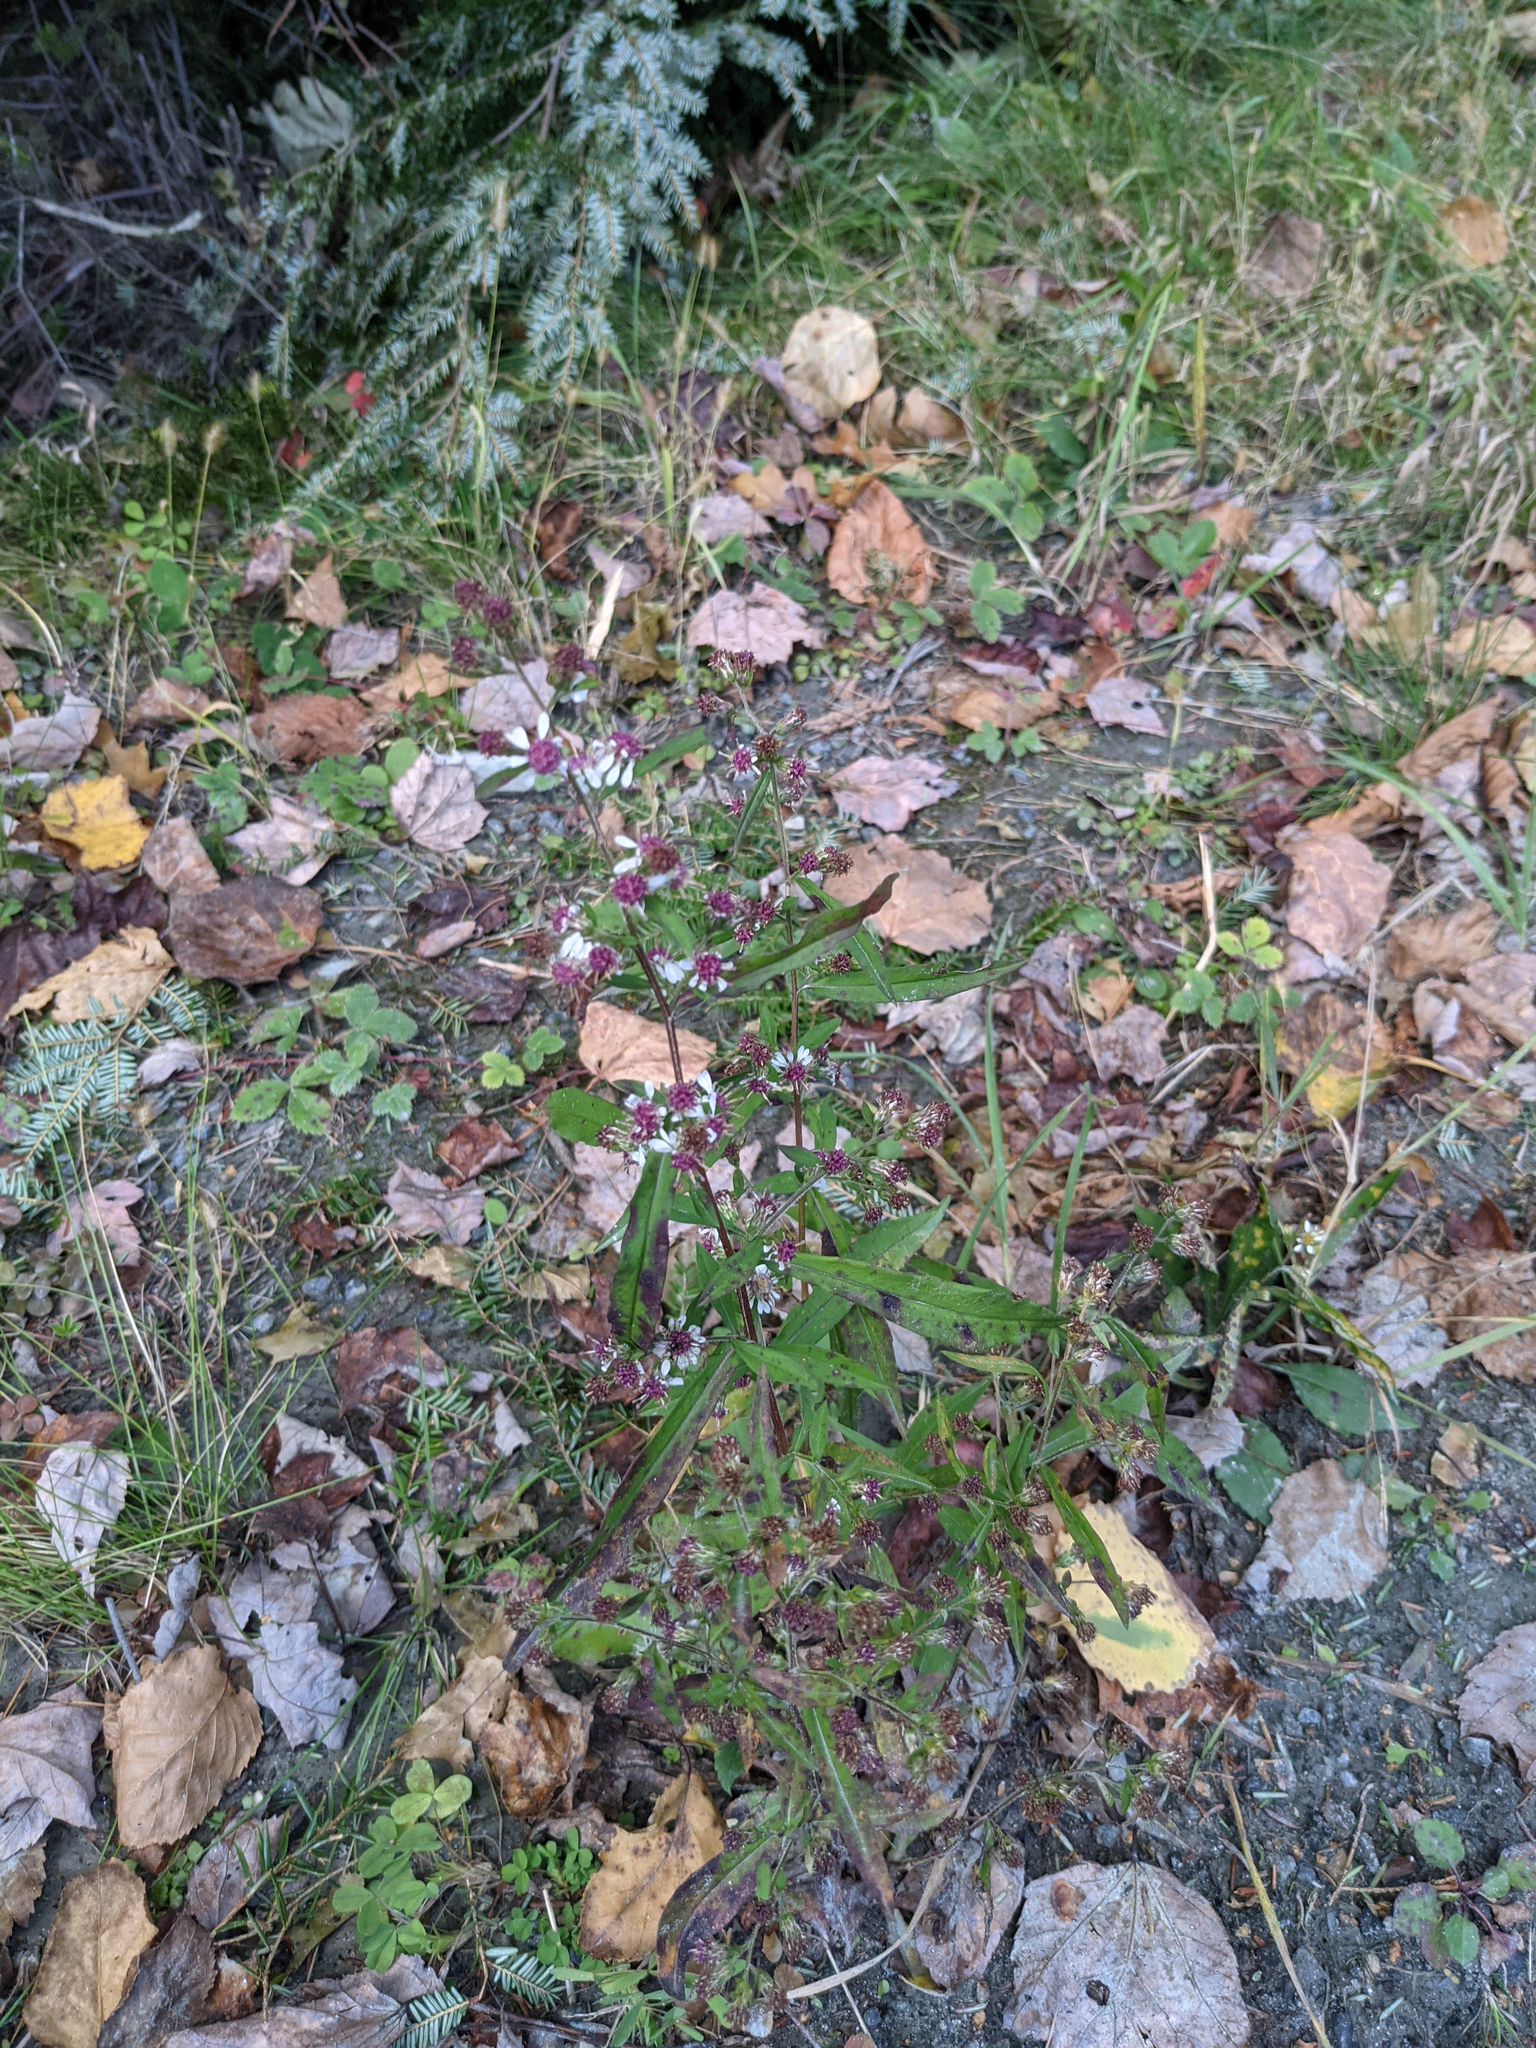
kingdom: Plantae
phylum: Tracheophyta
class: Magnoliopsida
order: Asterales
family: Asteraceae
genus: Symphyotrichum
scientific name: Symphyotrichum lateriflorum
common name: Calico aster
